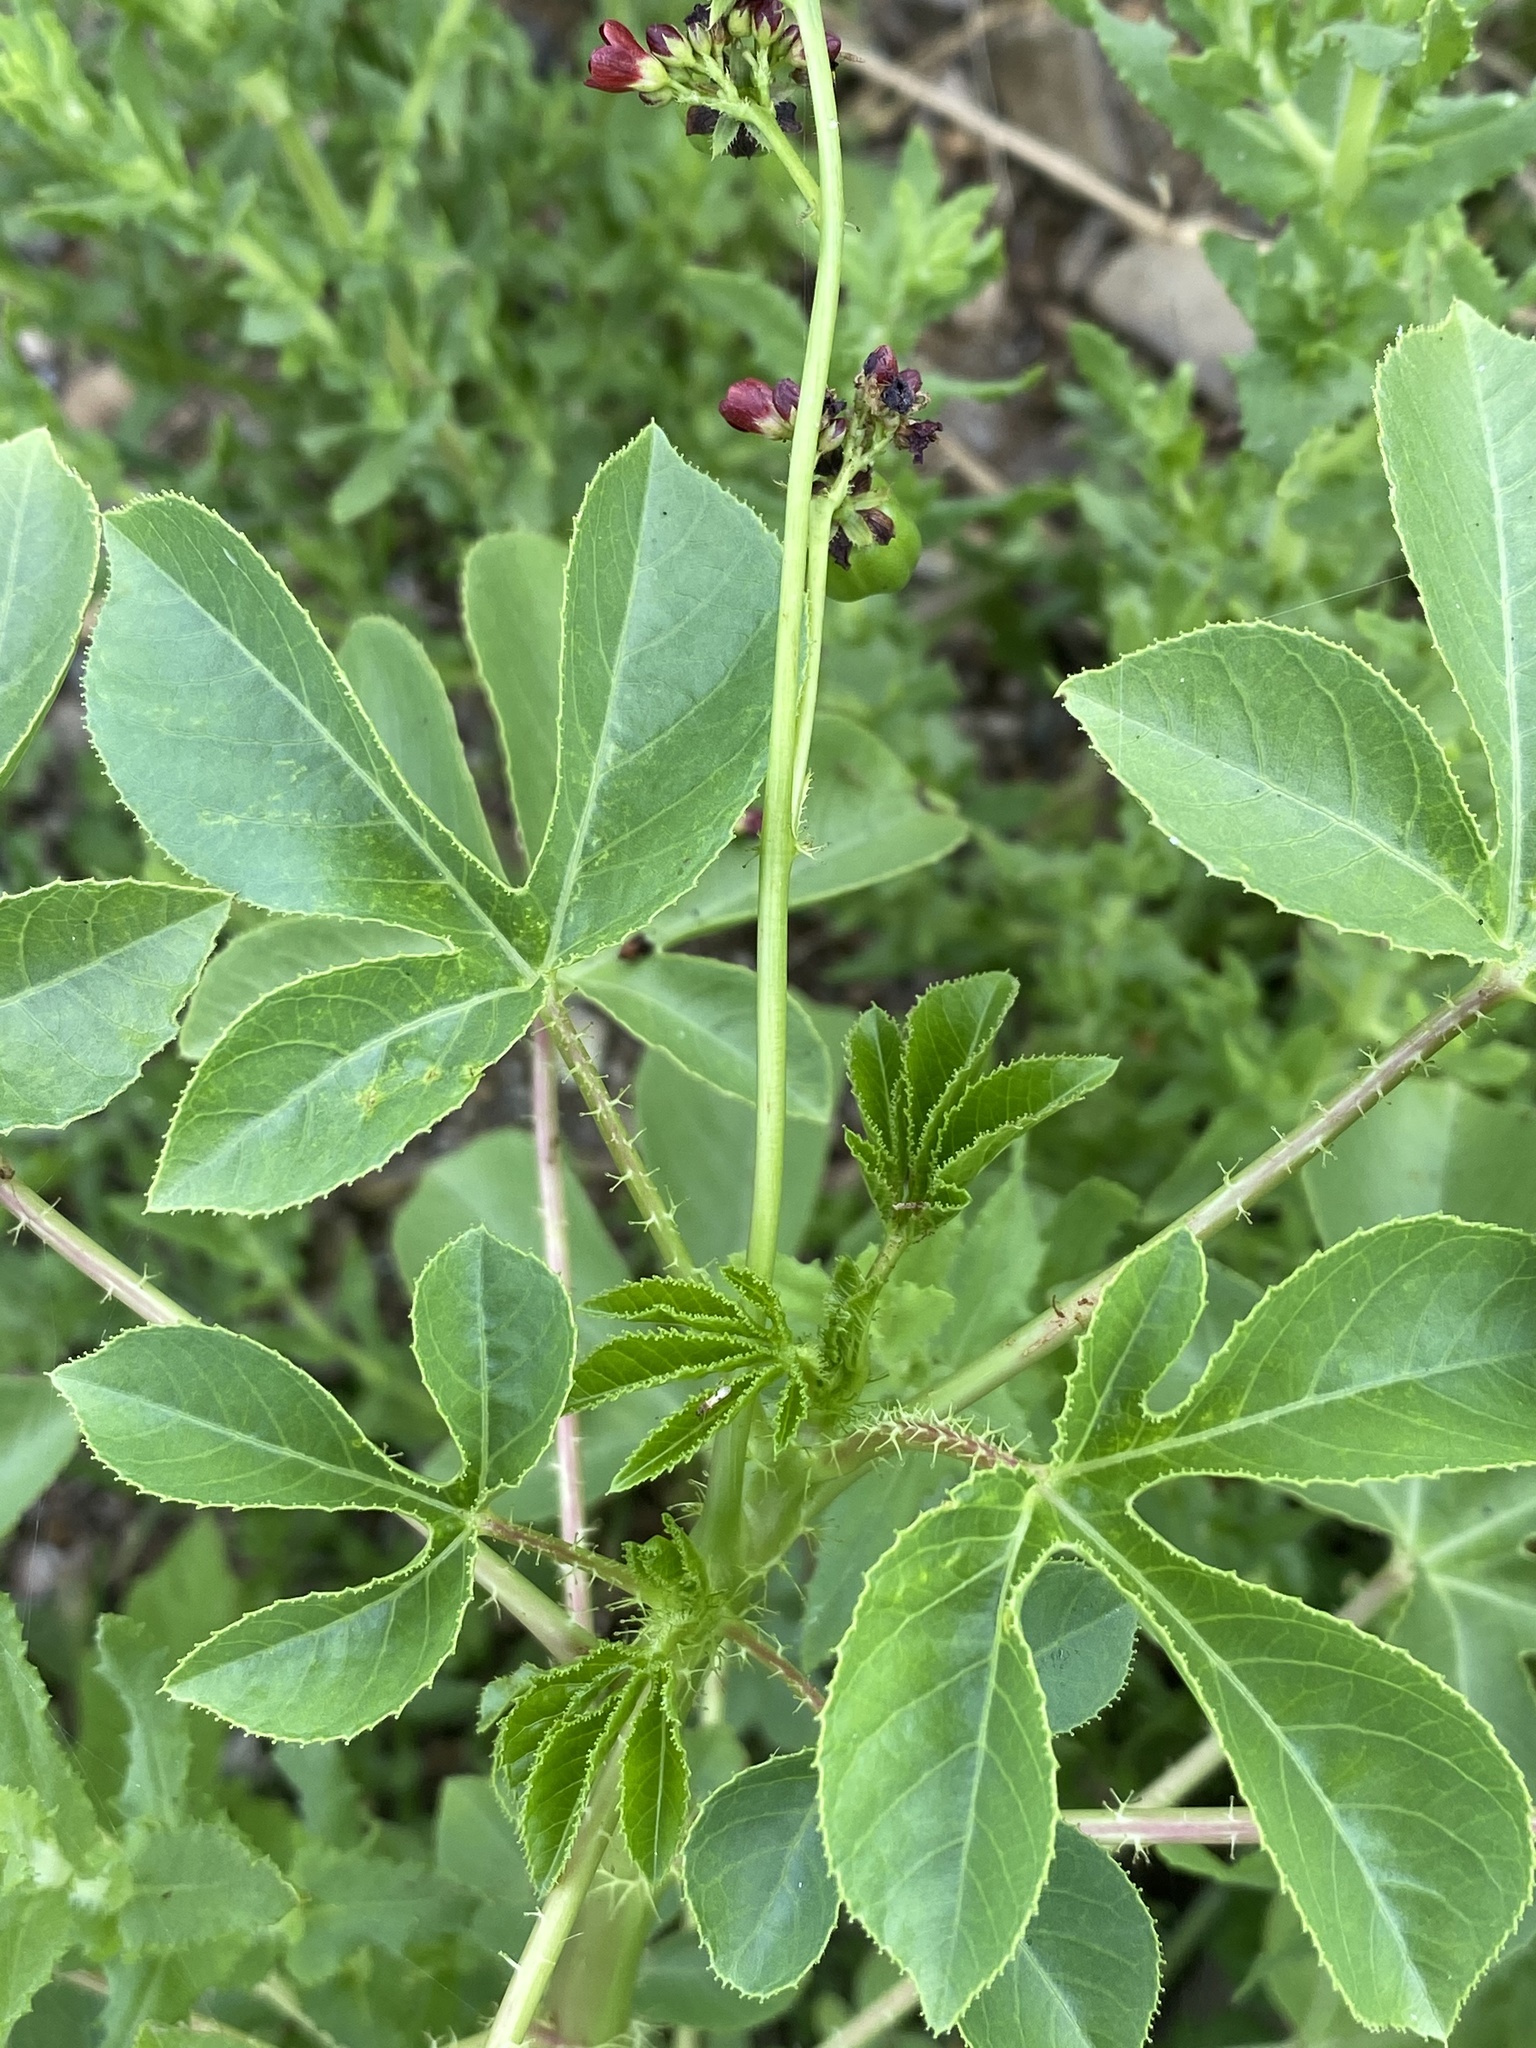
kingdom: Plantae
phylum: Tracheophyta
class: Magnoliopsida
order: Malpighiales
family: Euphorbiaceae
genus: Jatropha
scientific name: Jatropha gossypiifolia
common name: Bellyache bush
